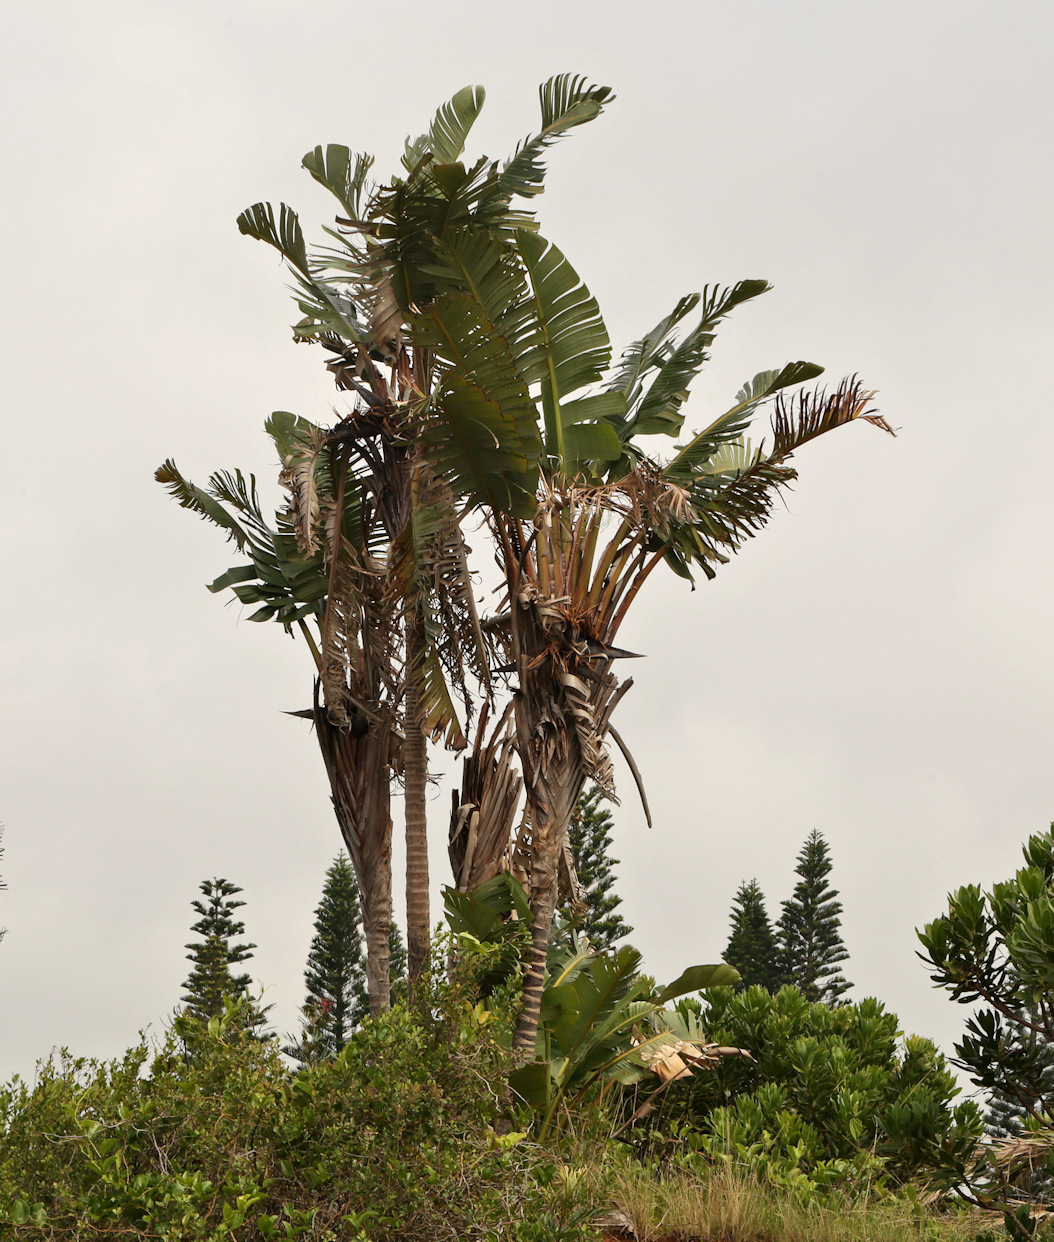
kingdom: Plantae
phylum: Tracheophyta
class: Liliopsida
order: Zingiberales
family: Strelitziaceae
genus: Strelitzia
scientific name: Strelitzia nicolai
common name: Bird-of-paradise tree
